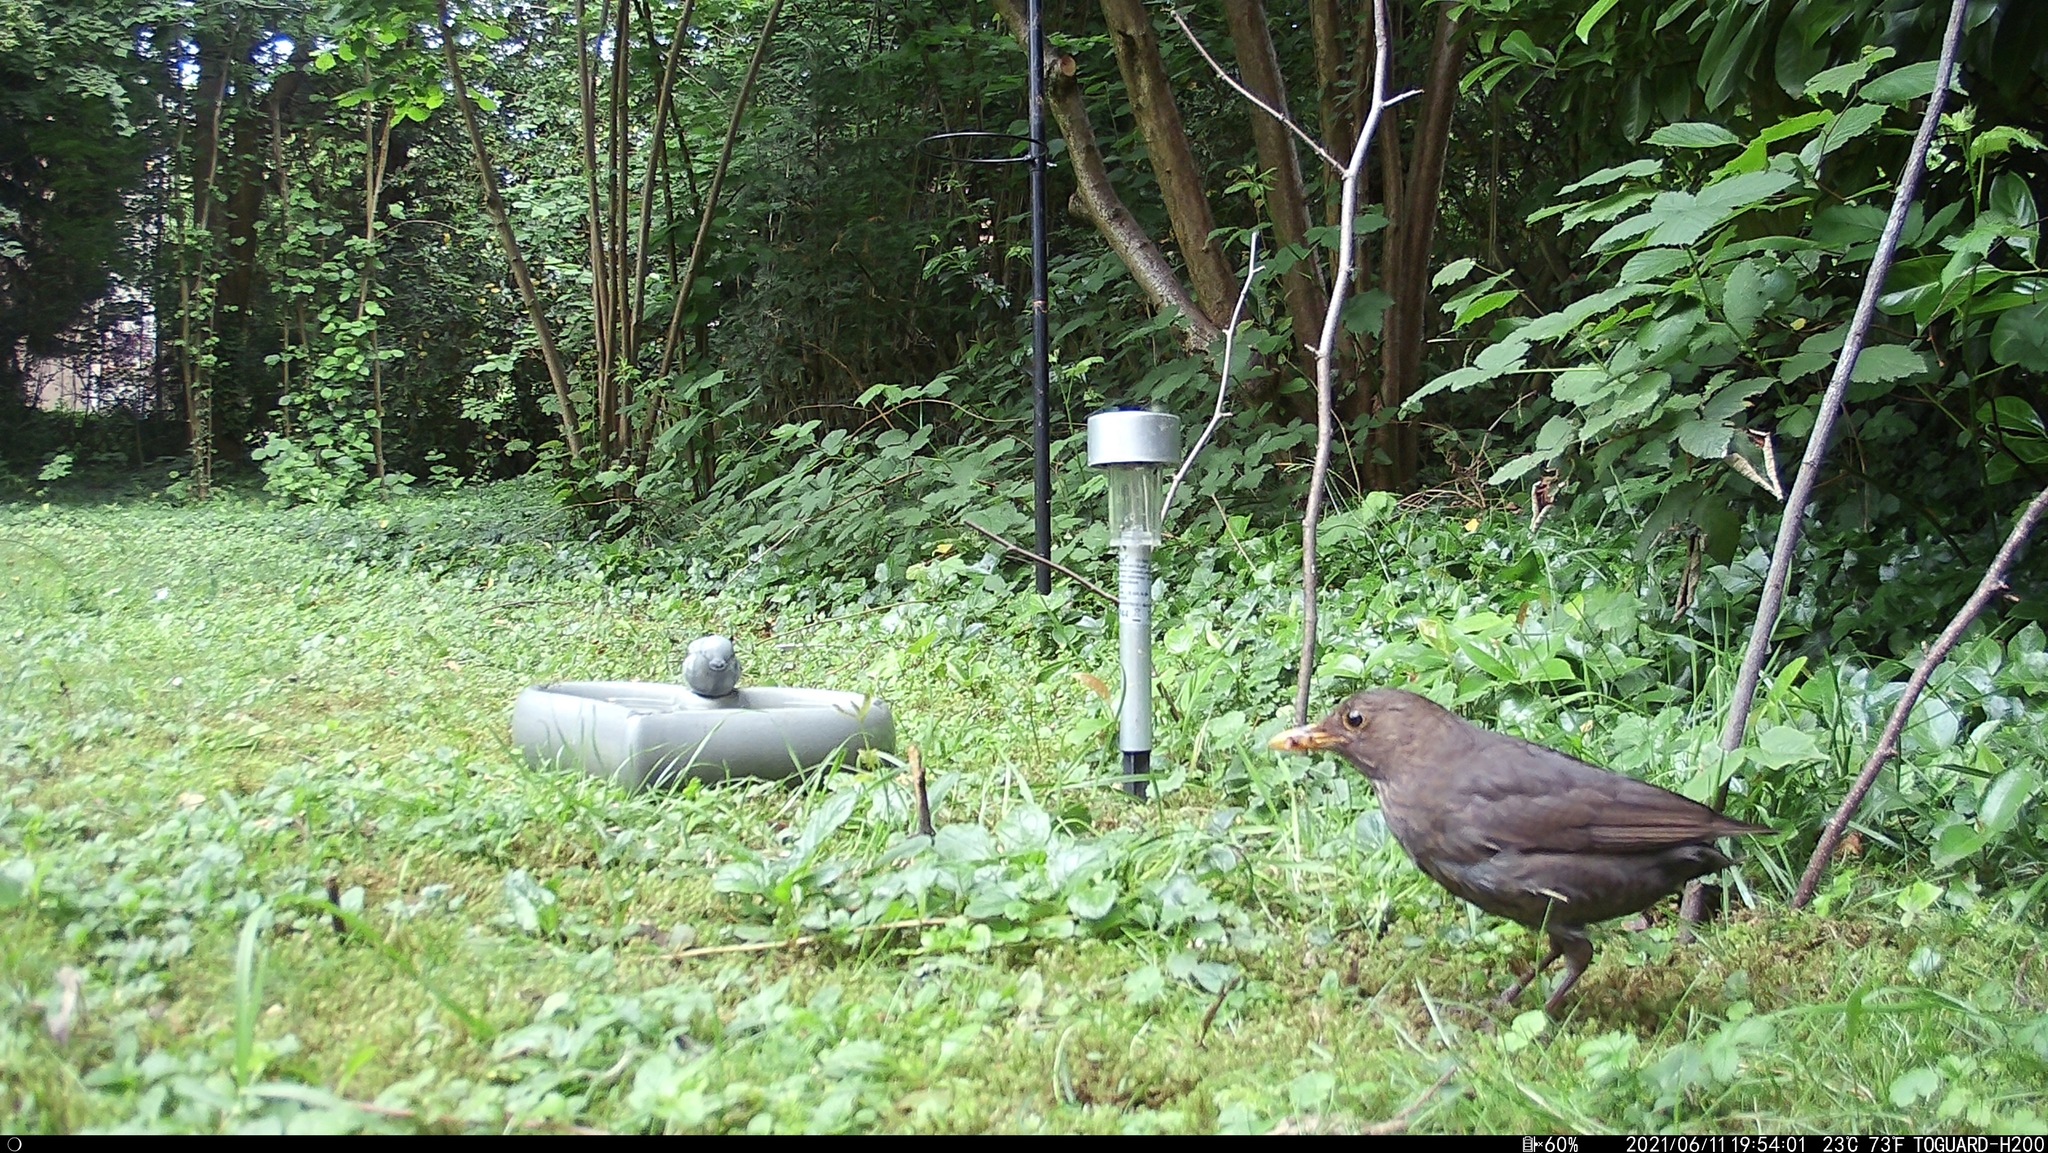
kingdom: Animalia
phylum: Chordata
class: Aves
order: Passeriformes
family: Turdidae
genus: Turdus
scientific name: Turdus merula
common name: Common blackbird
